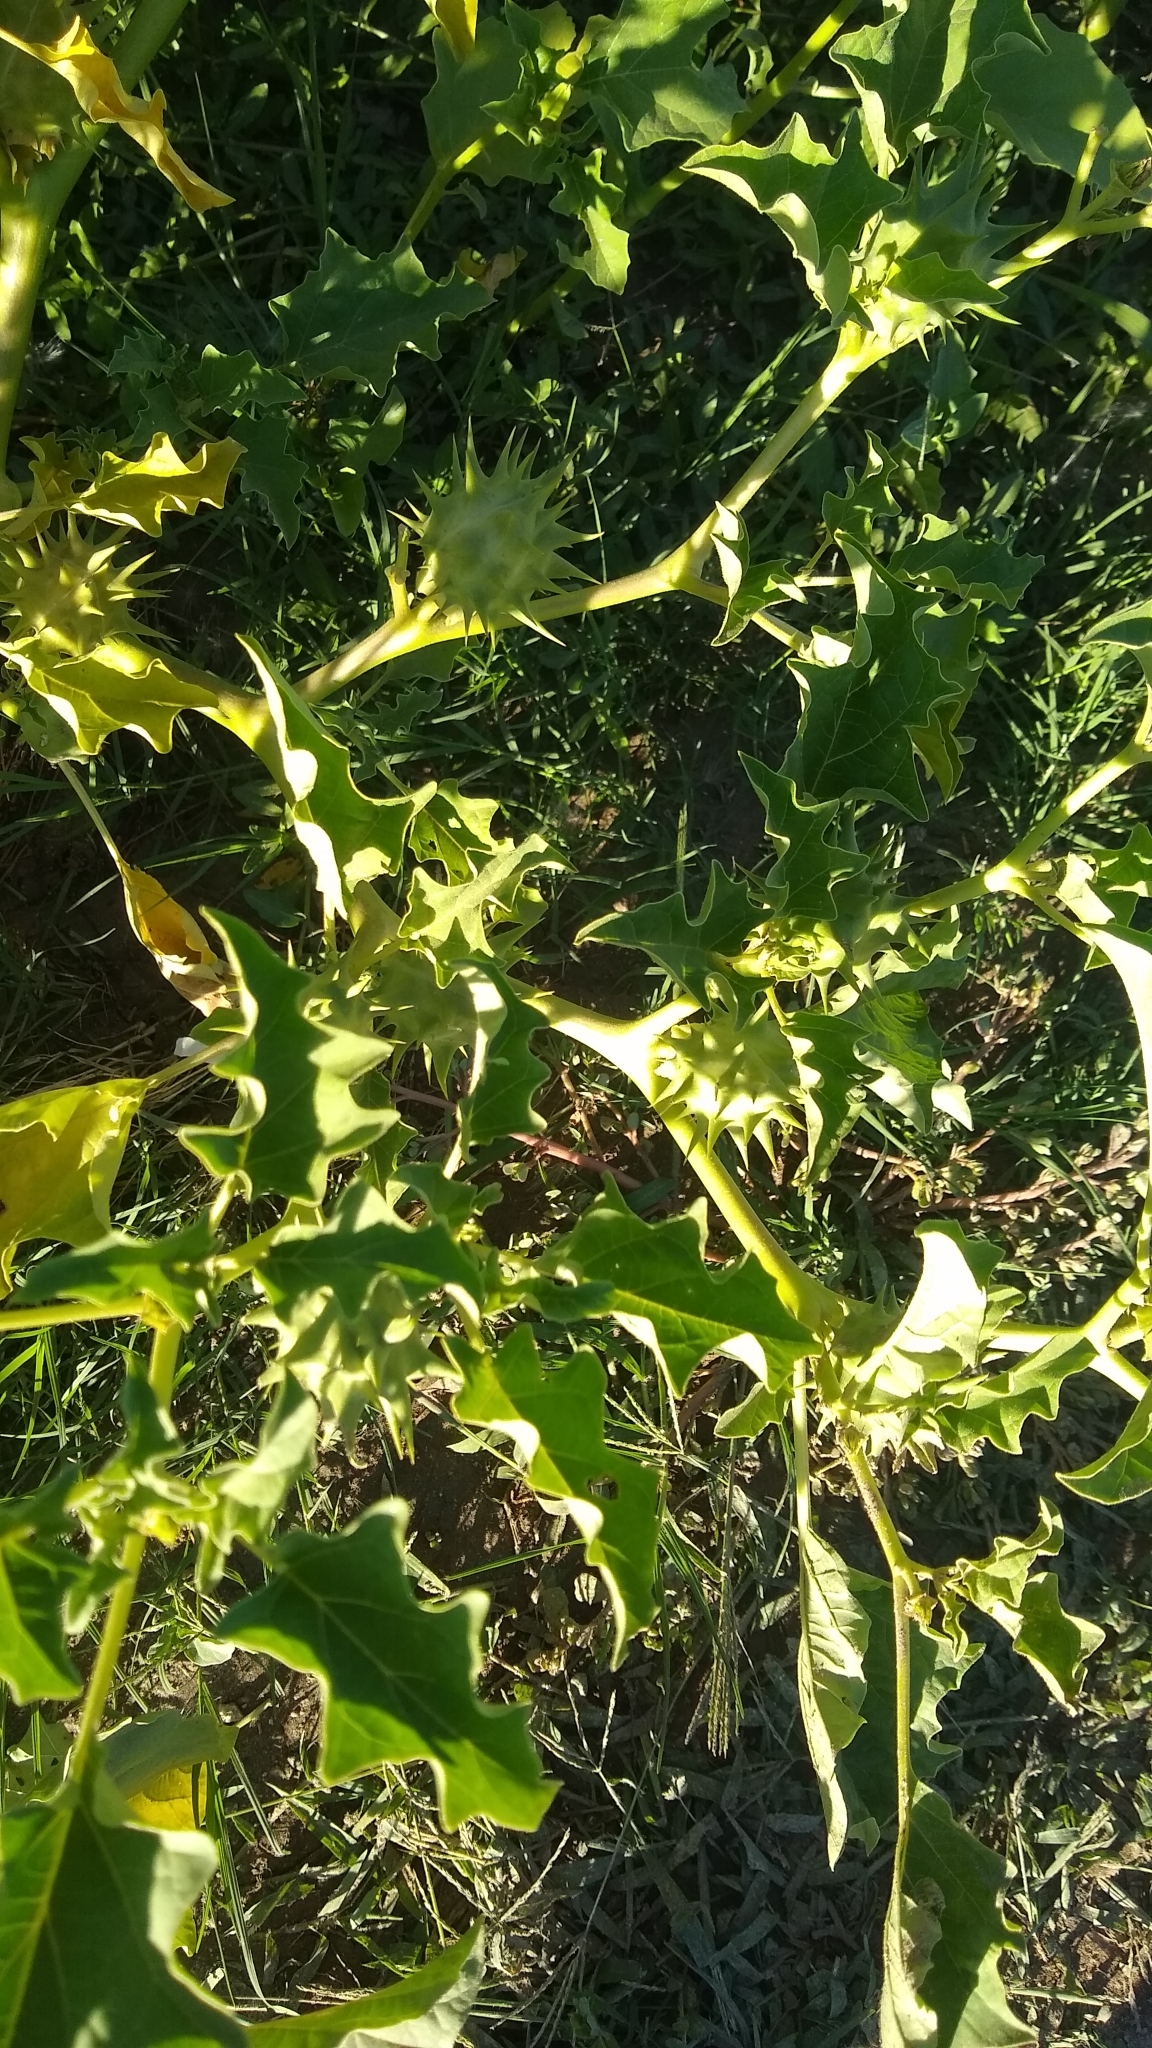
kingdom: Plantae
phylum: Tracheophyta
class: Magnoliopsida
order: Solanales
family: Solanaceae
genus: Datura
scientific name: Datura ferox
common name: Angel's-trumpets
